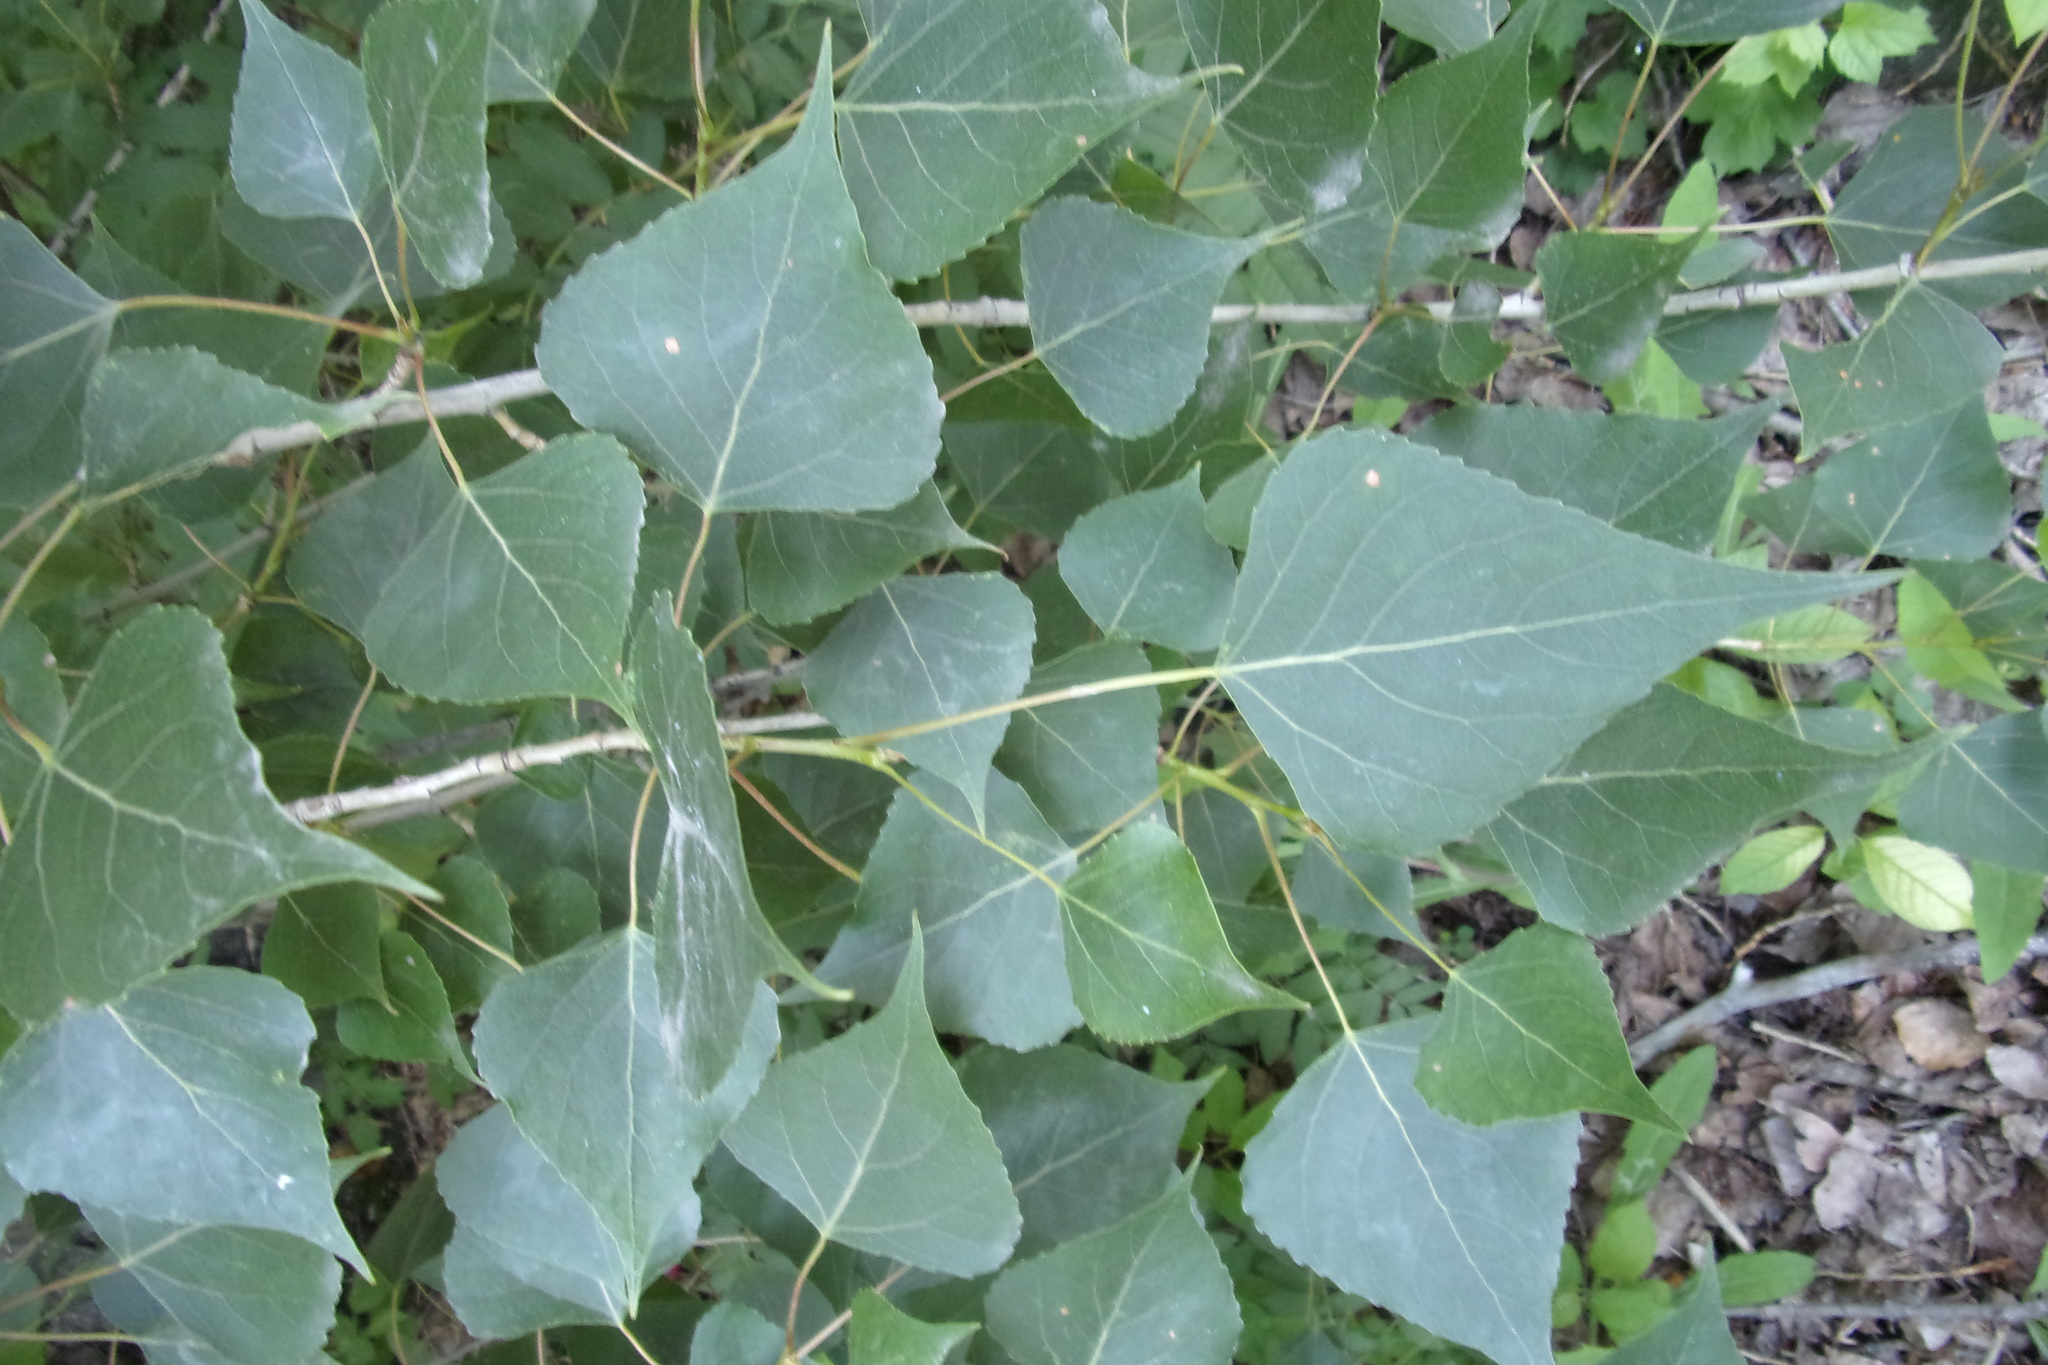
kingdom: Plantae
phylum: Tracheophyta
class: Magnoliopsida
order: Malpighiales
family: Salicaceae
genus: Populus
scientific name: Populus nigra
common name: Black poplar
